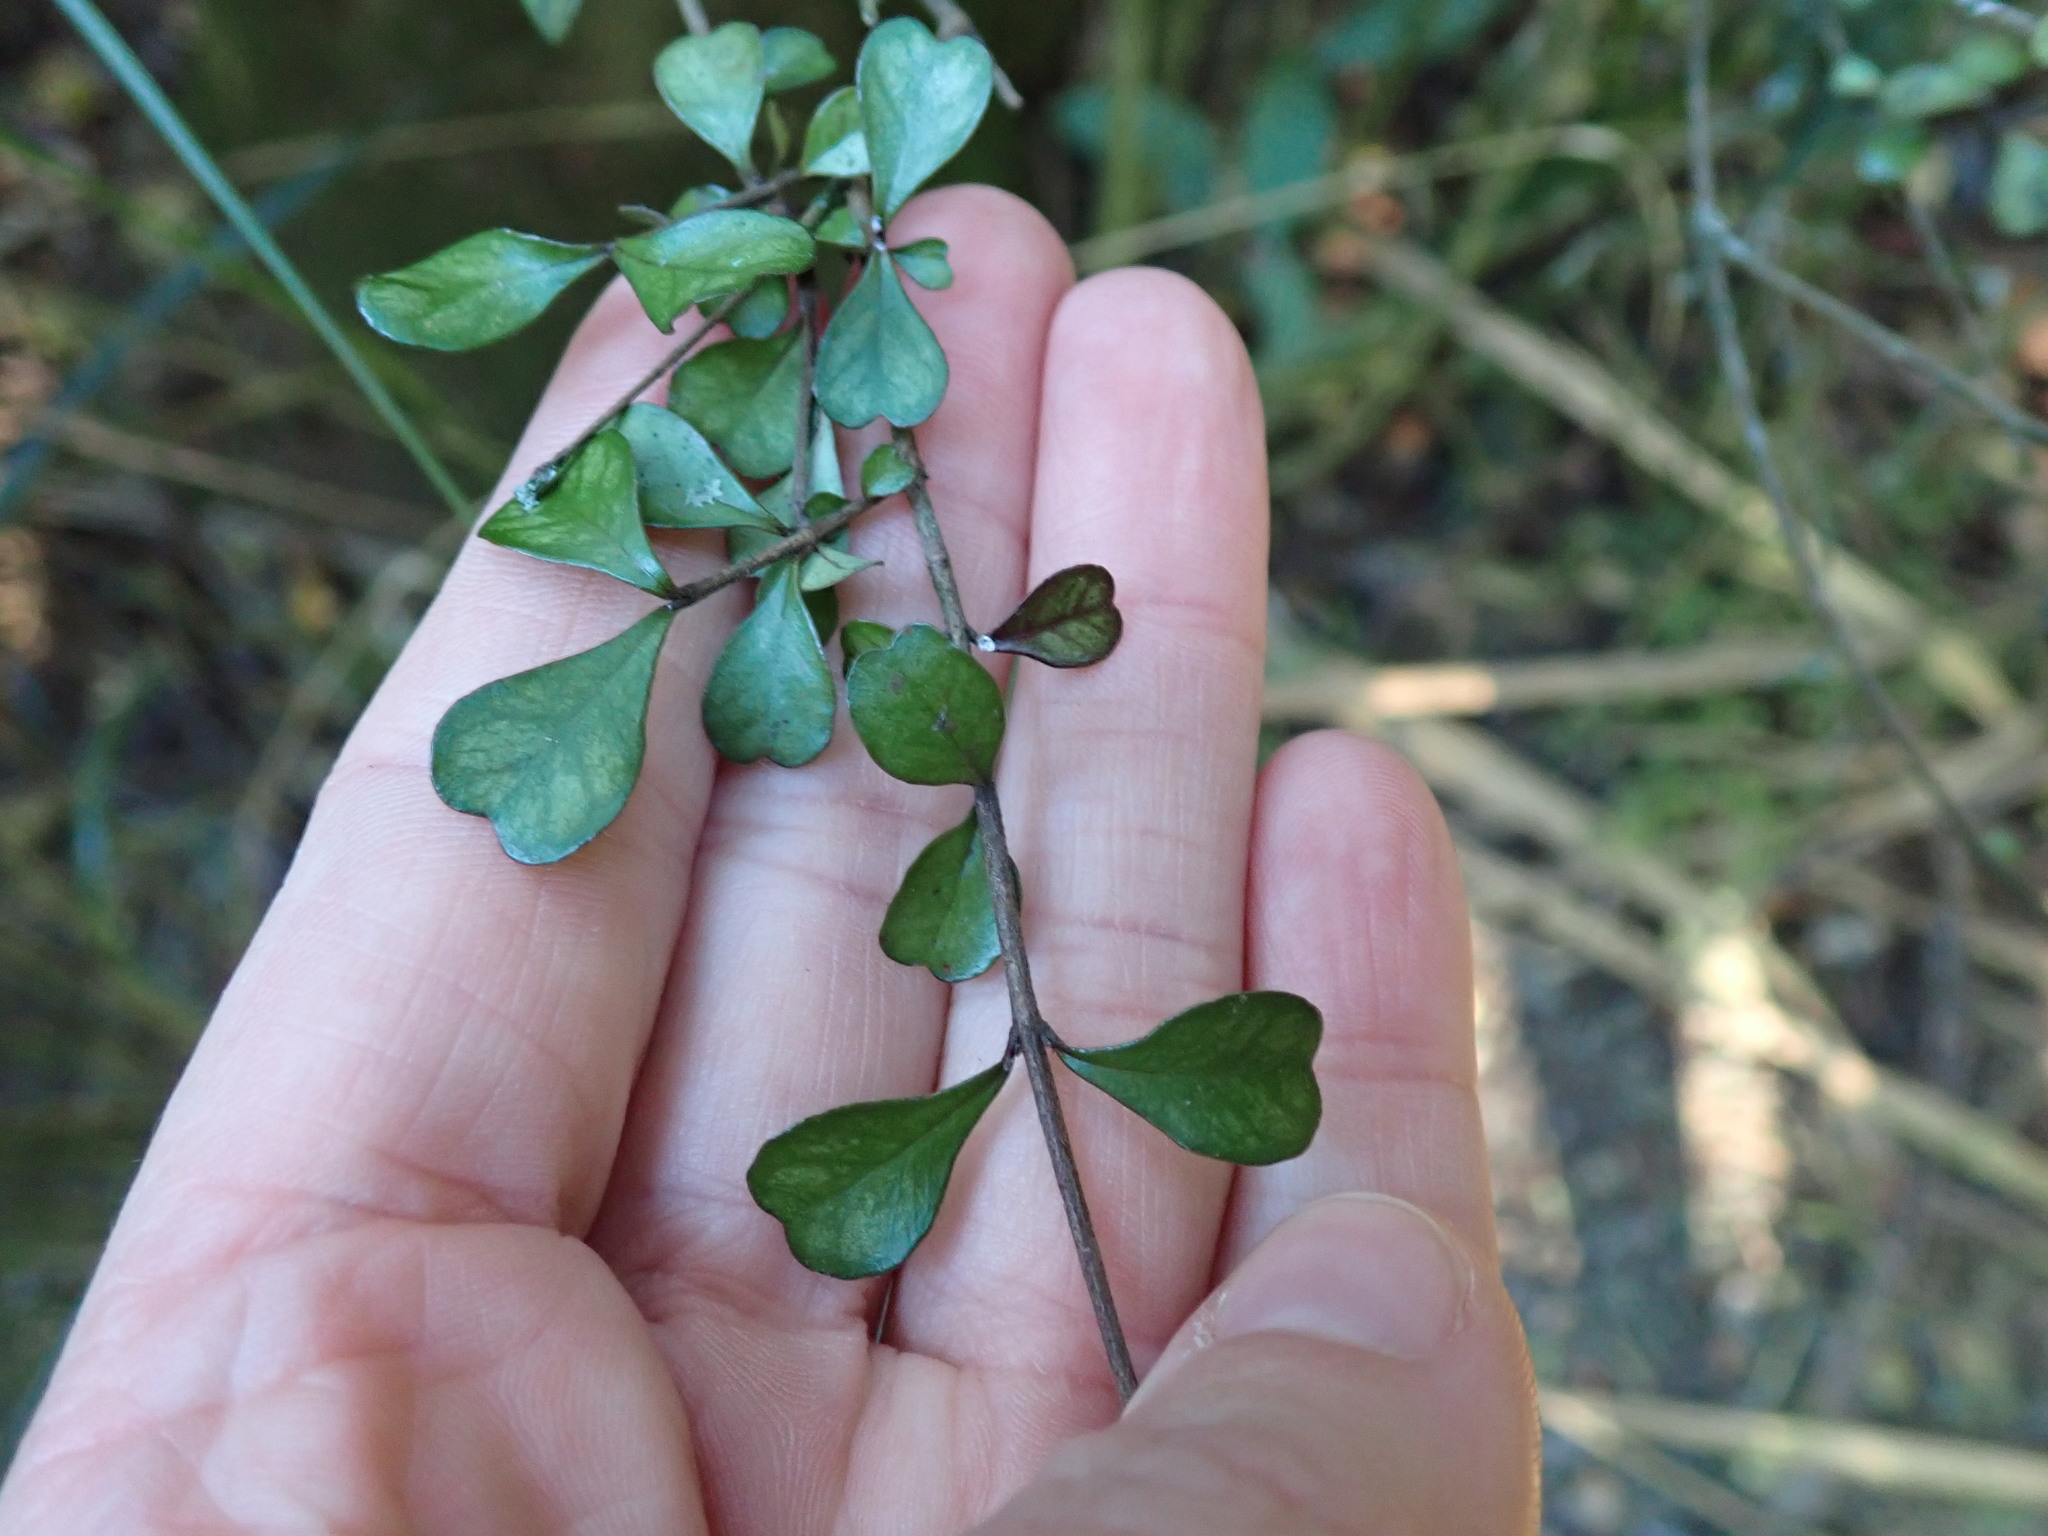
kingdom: Plantae
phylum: Tracheophyta
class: Magnoliopsida
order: Myrtales
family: Myrtaceae
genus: Lophomyrtus
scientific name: Lophomyrtus obcordata
